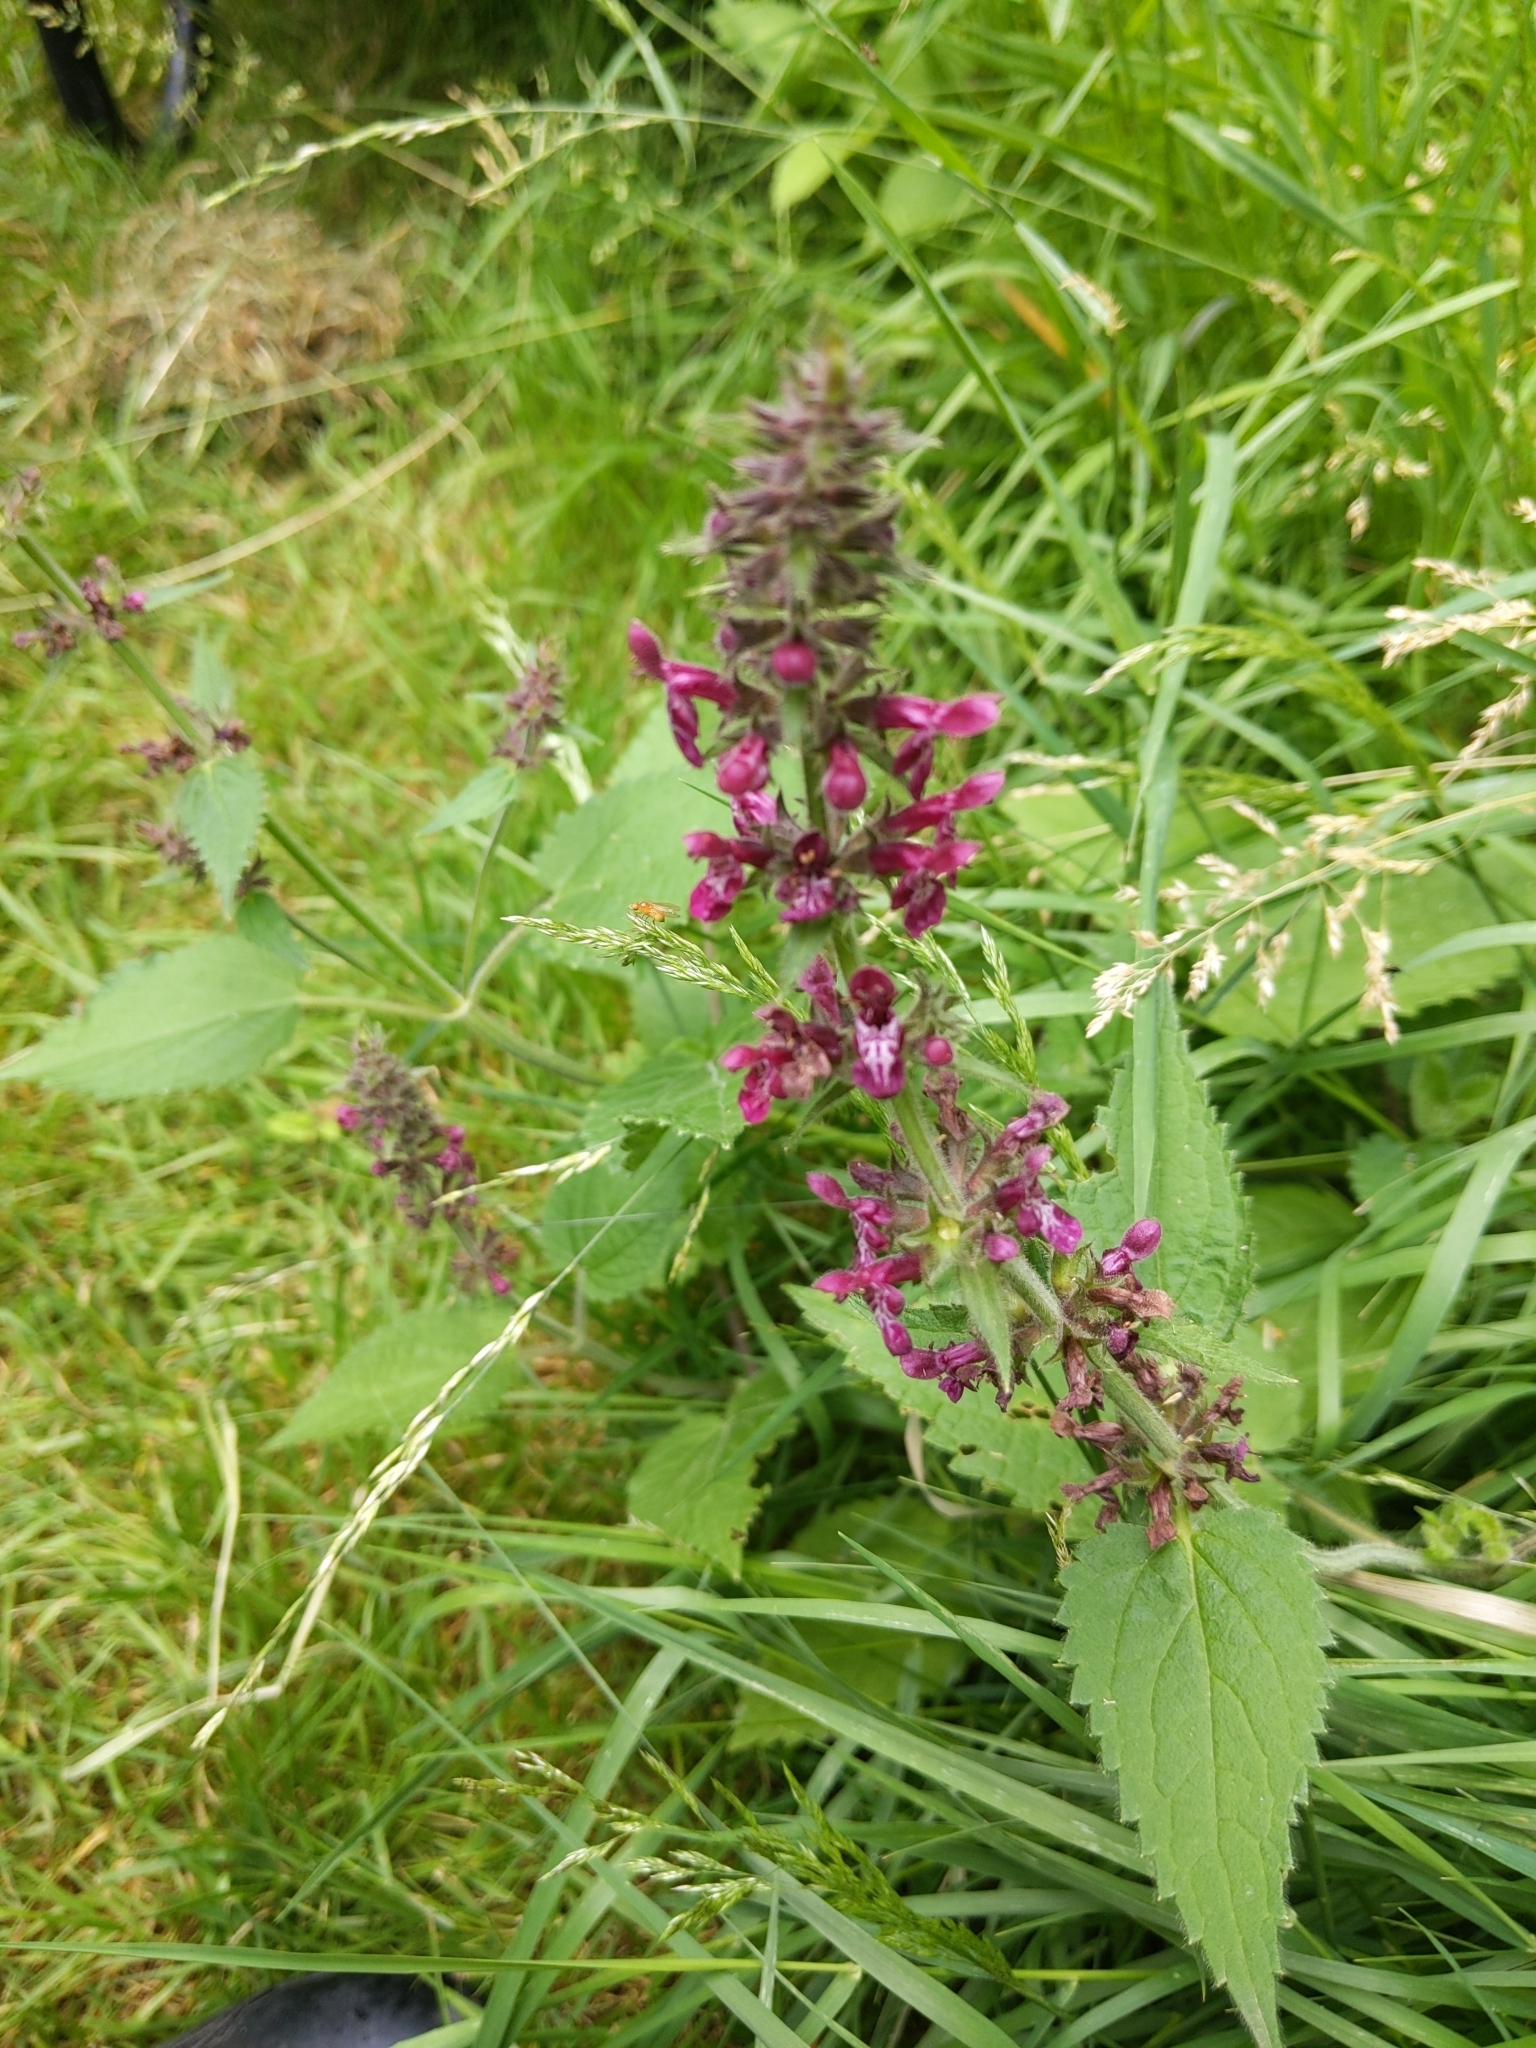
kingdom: Plantae
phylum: Tracheophyta
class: Magnoliopsida
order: Lamiales
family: Lamiaceae
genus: Stachys
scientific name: Stachys sylvatica
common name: Hedge woundwort
